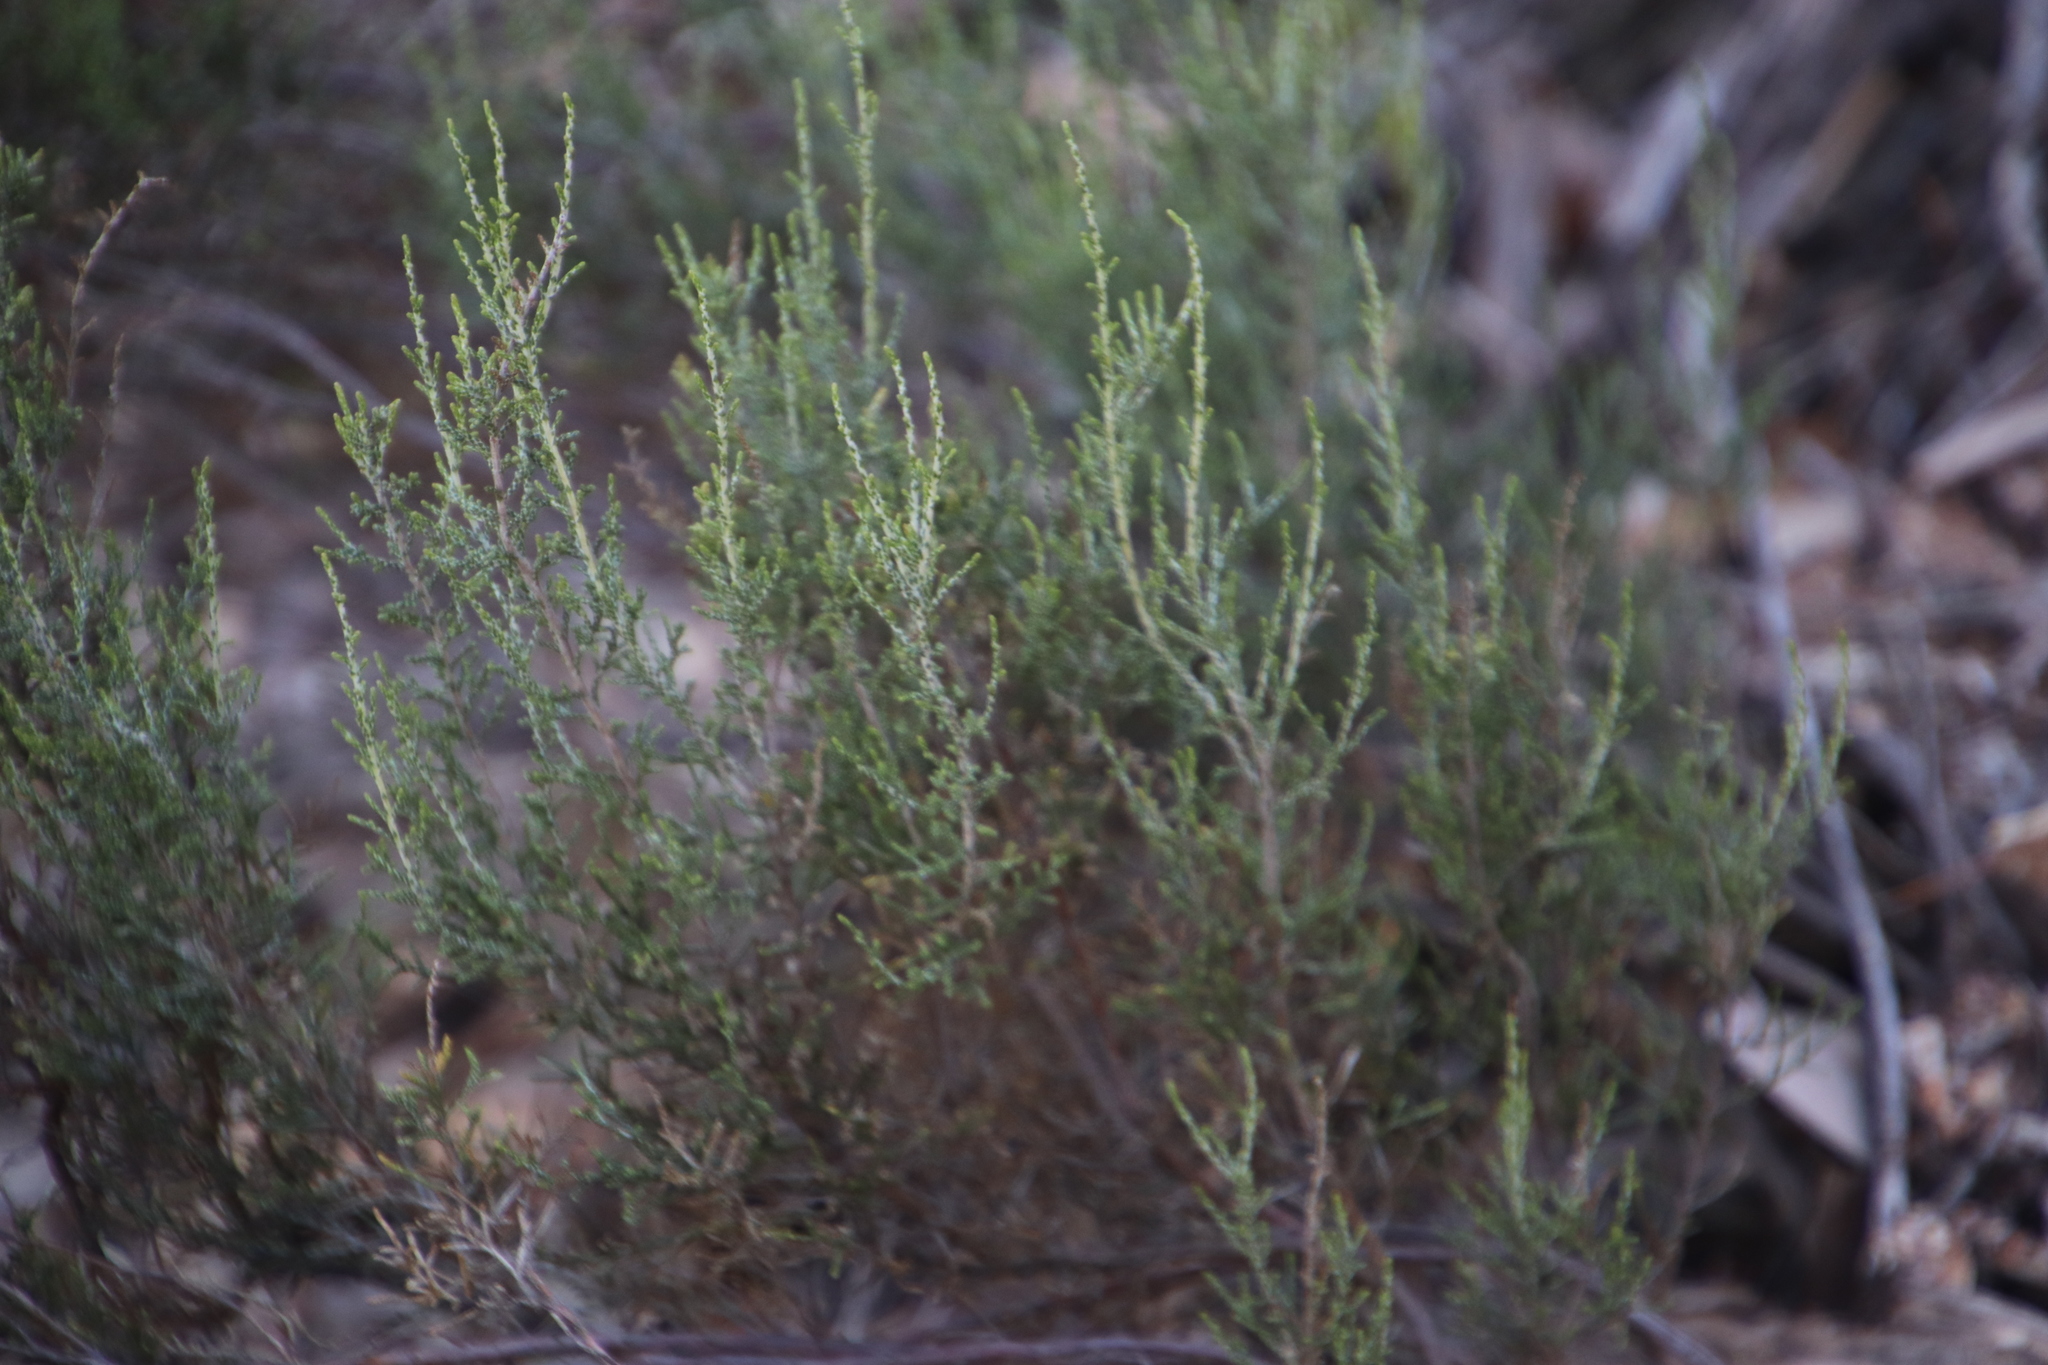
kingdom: Plantae
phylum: Tracheophyta
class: Magnoliopsida
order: Asterales
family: Asteraceae
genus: Dicerothamnus
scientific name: Dicerothamnus rhinocerotis
